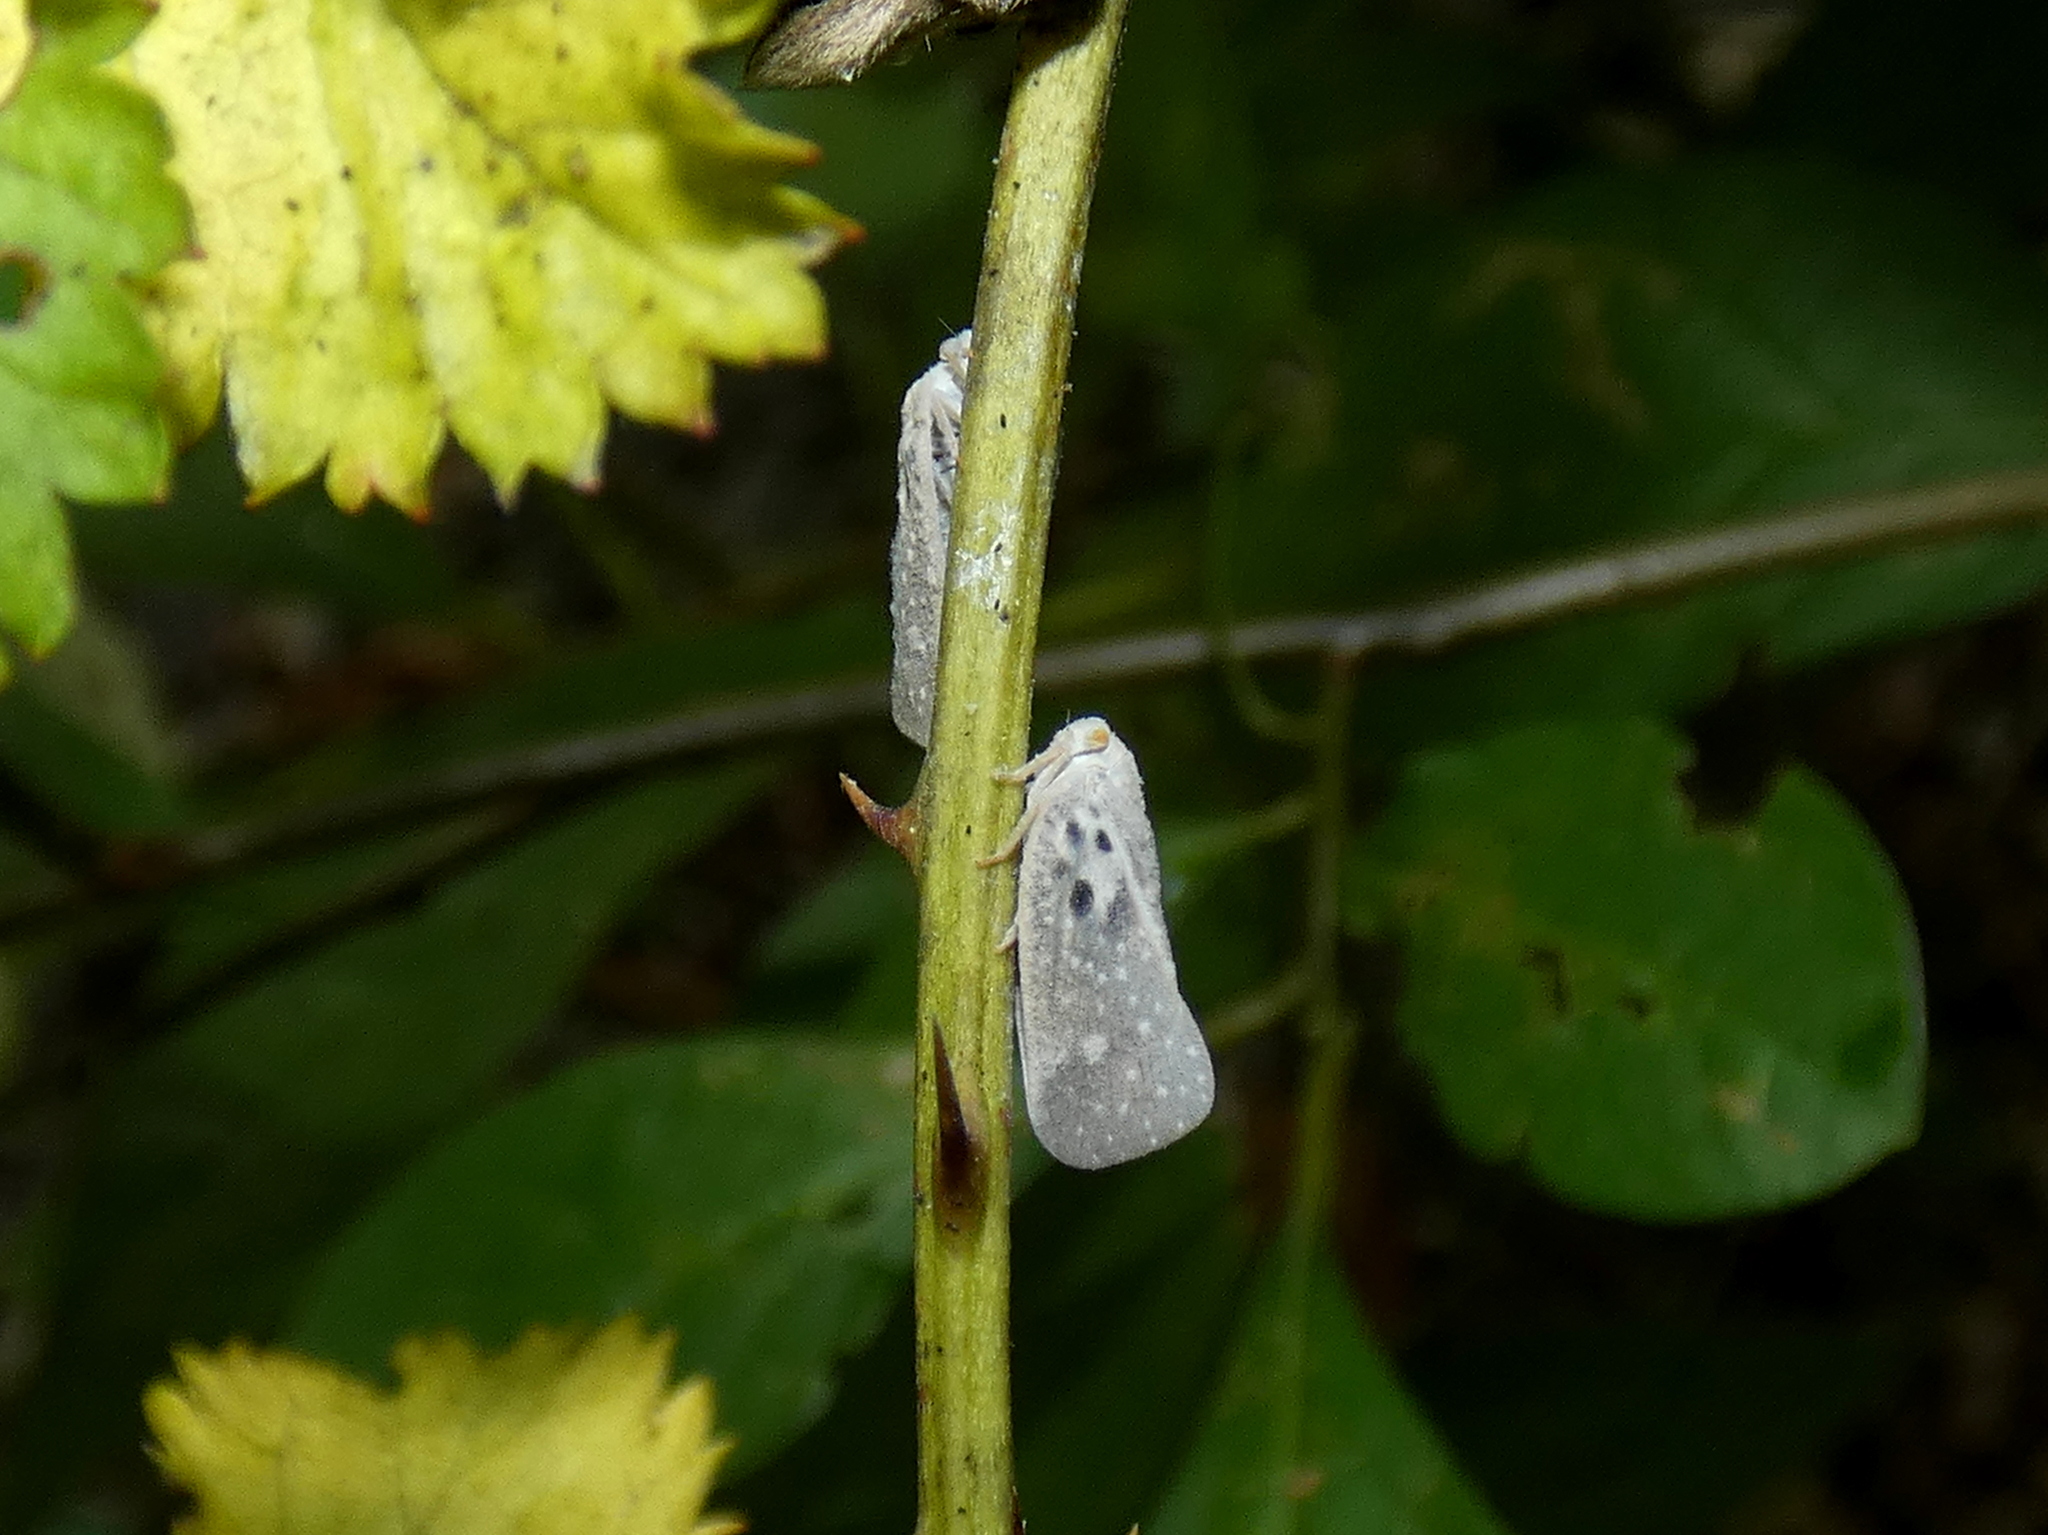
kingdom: Animalia
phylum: Arthropoda
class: Insecta
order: Hemiptera
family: Flatidae
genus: Metcalfa
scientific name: Metcalfa pruinosa
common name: Citrus flatid planthopper
